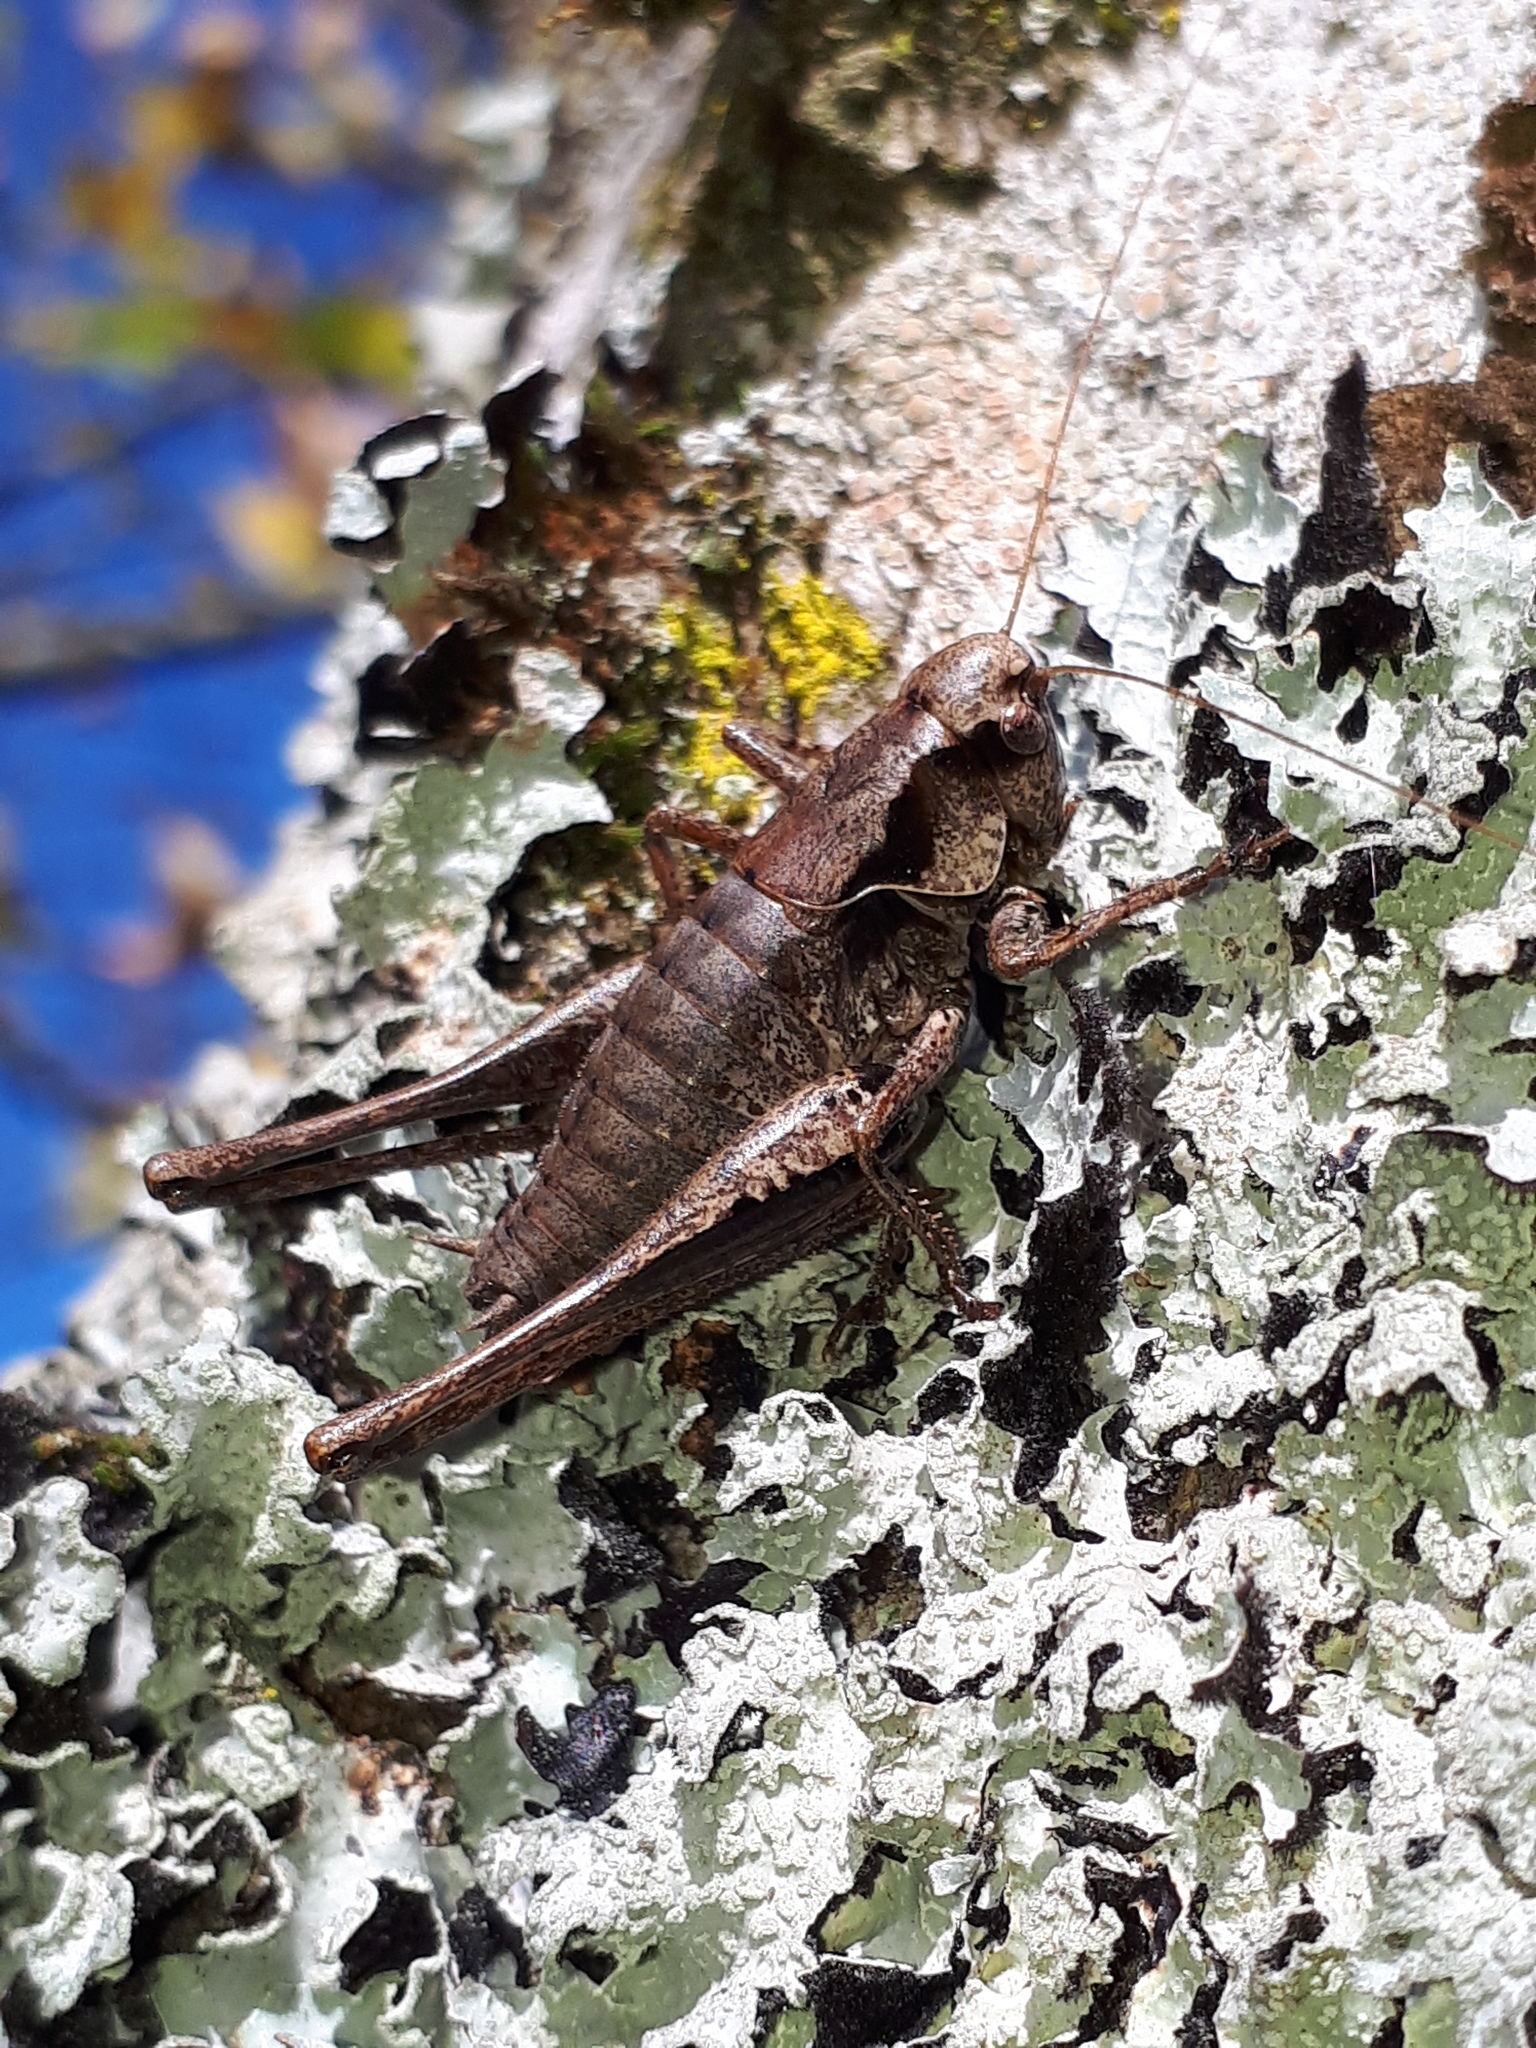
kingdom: Animalia
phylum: Arthropoda
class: Insecta
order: Orthoptera
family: Tettigoniidae
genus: Pholidoptera
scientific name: Pholidoptera griseoaptera
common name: Dark bush-cricket
